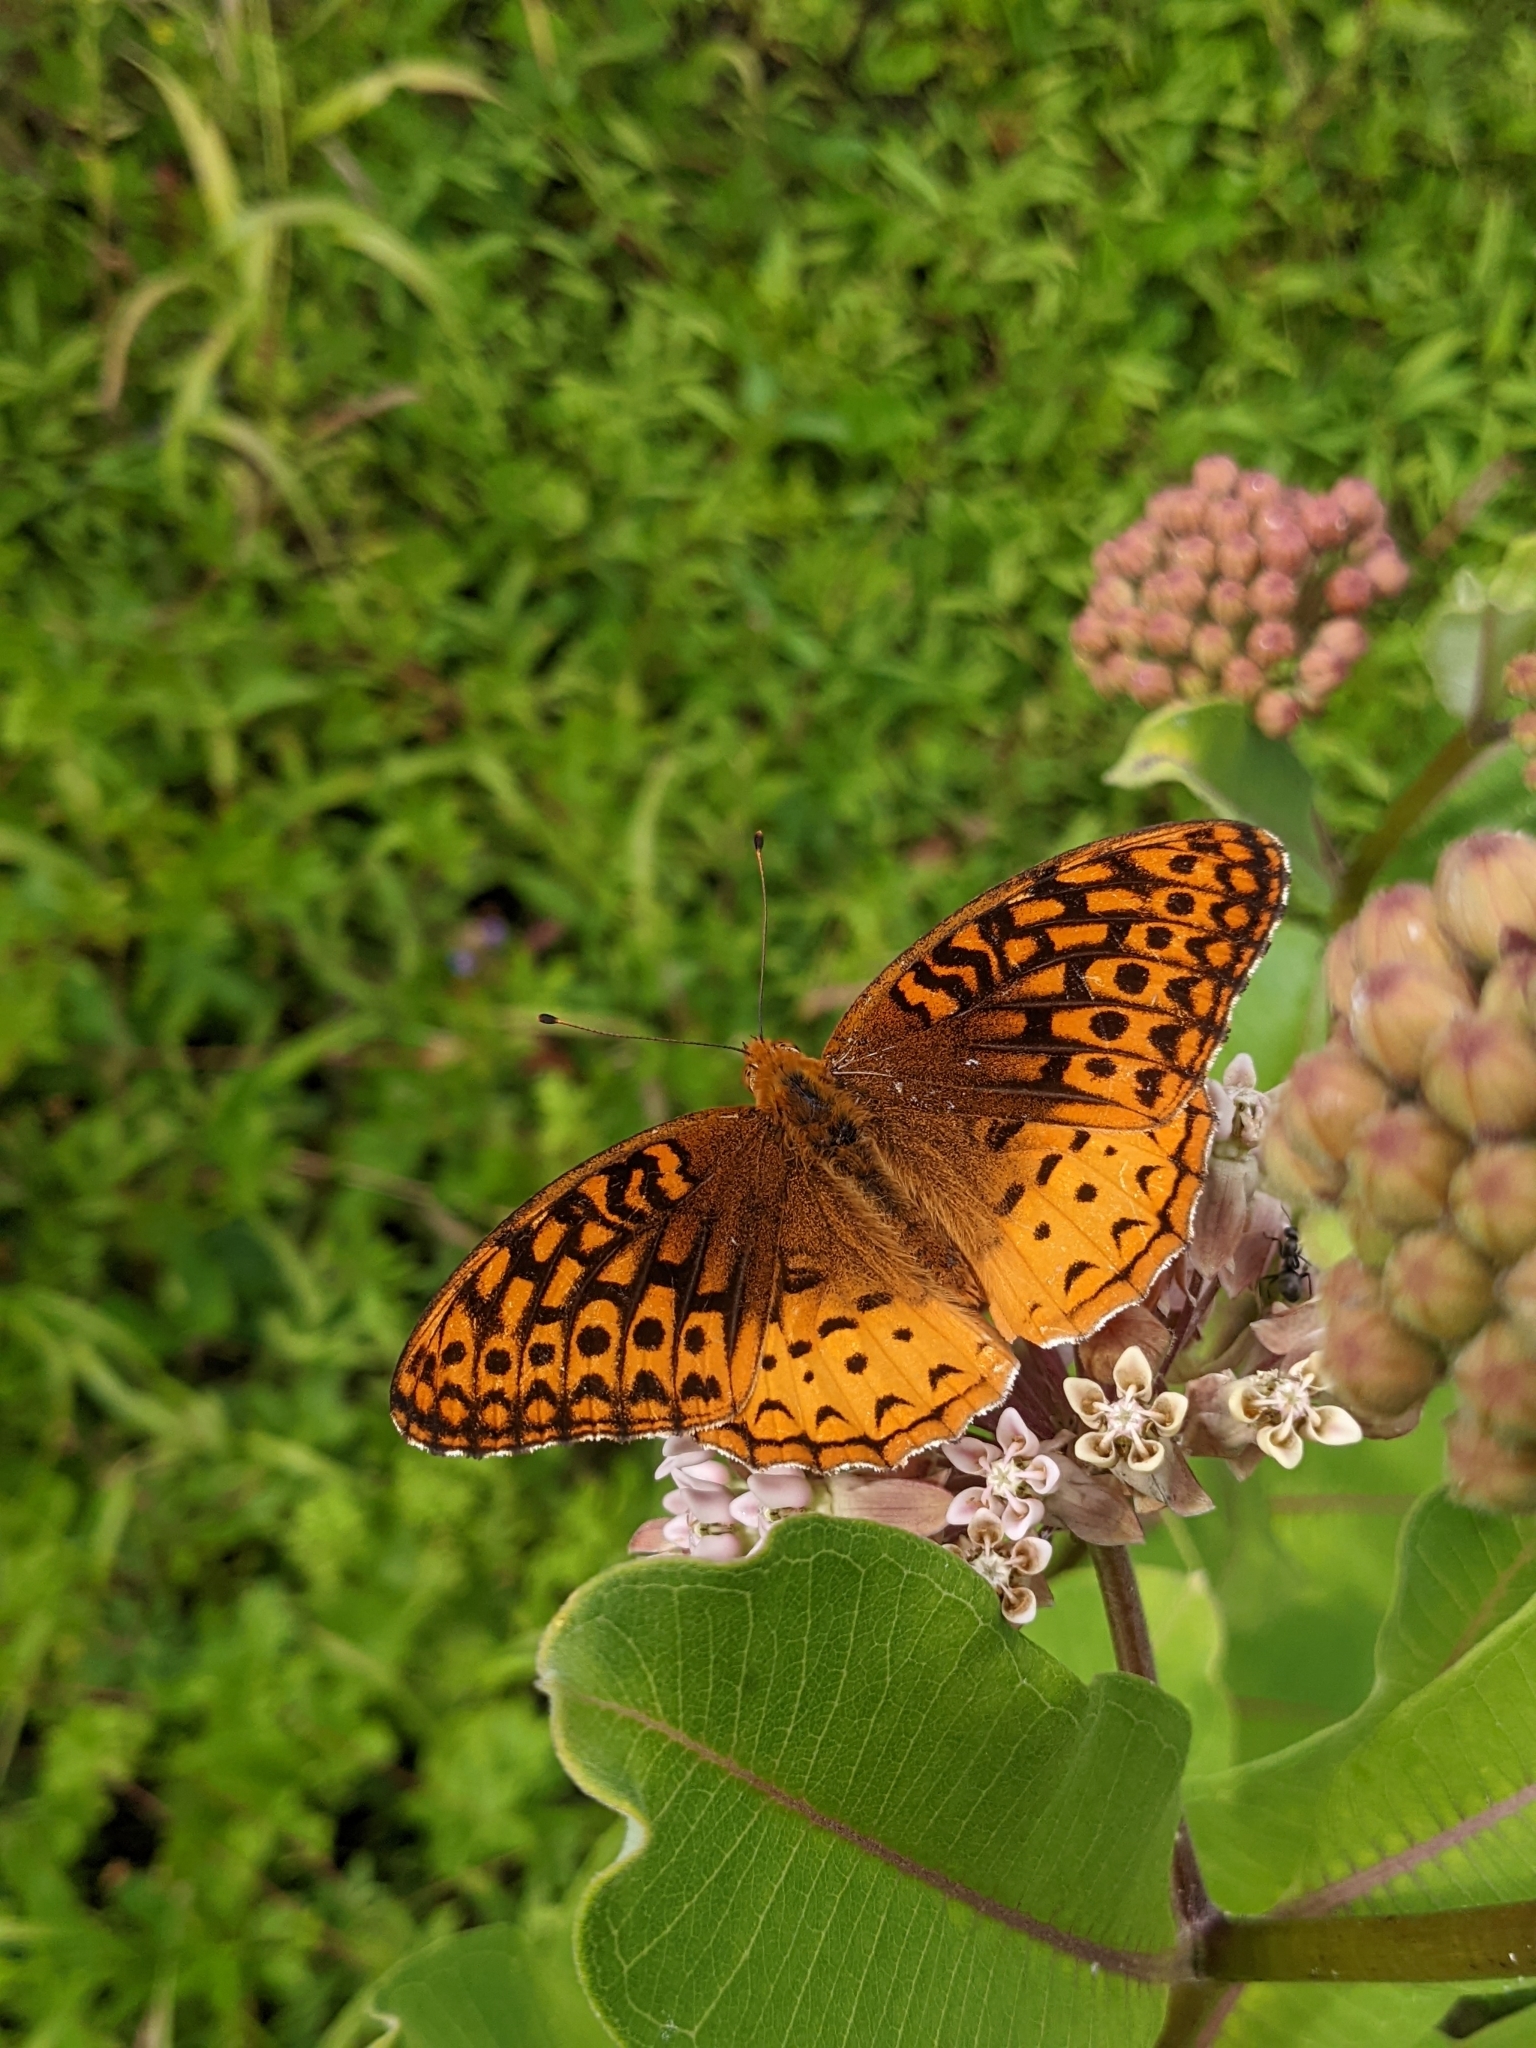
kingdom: Animalia
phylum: Arthropoda
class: Insecta
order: Lepidoptera
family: Nymphalidae
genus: Speyeria
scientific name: Speyeria cybele
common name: Great spangled fritillary
